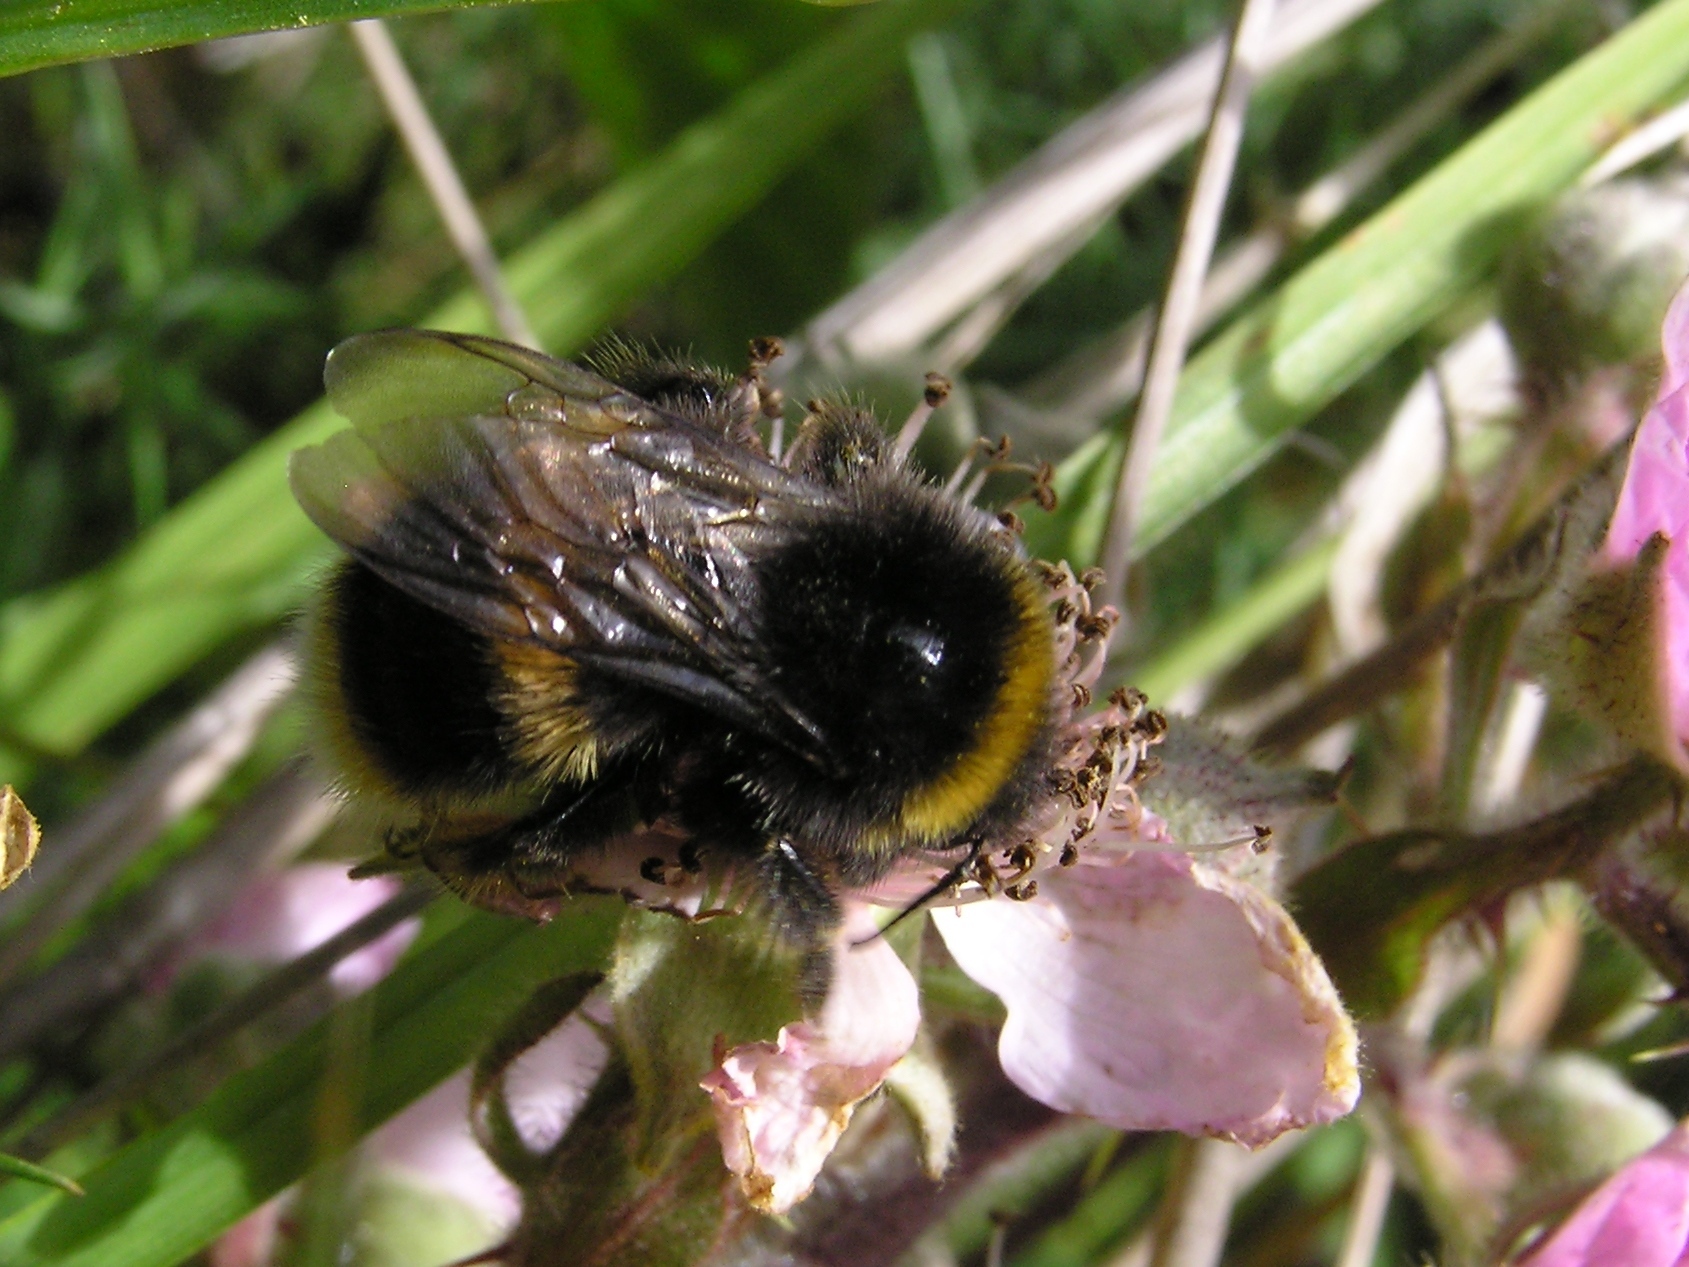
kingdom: Animalia
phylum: Arthropoda
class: Insecta
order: Hymenoptera
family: Apidae
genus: Bombus
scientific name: Bombus terrestris
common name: Buff-tailed bumblebee
